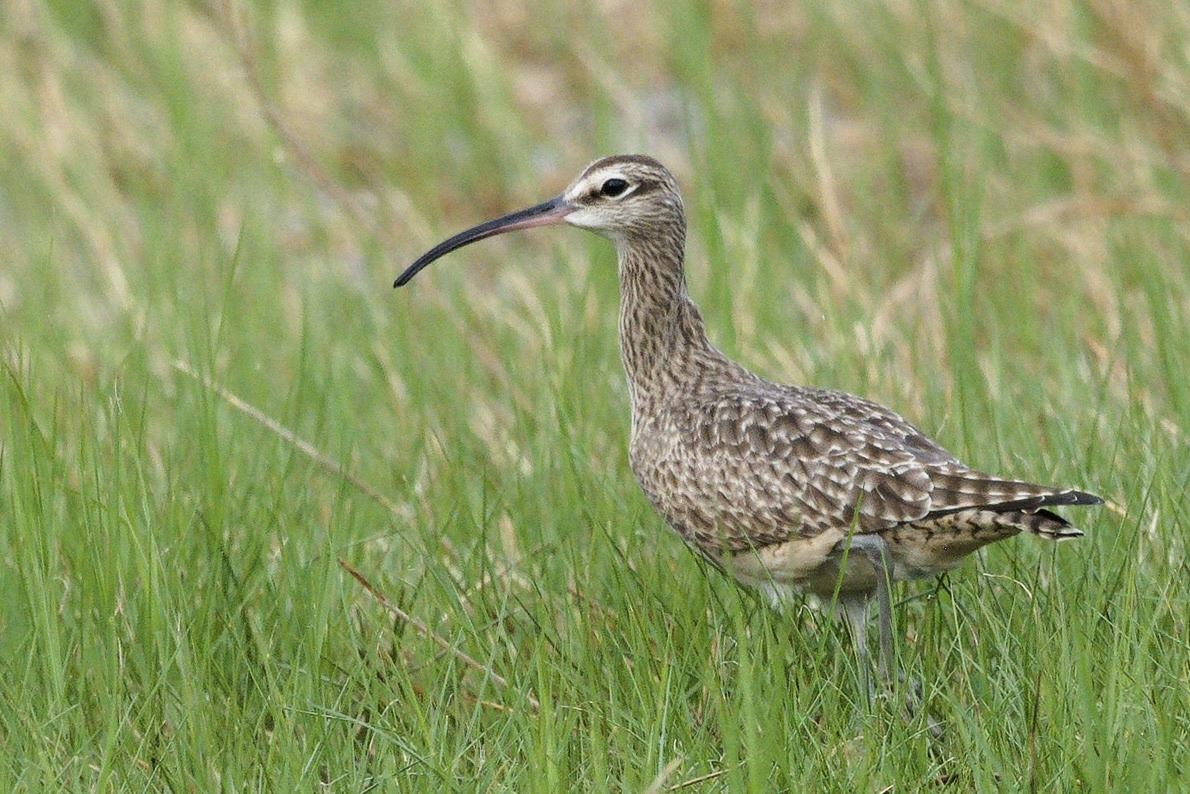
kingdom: Animalia
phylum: Chordata
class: Aves
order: Charadriiformes
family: Scolopacidae
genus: Numenius
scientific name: Numenius phaeopus
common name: Whimbrel
